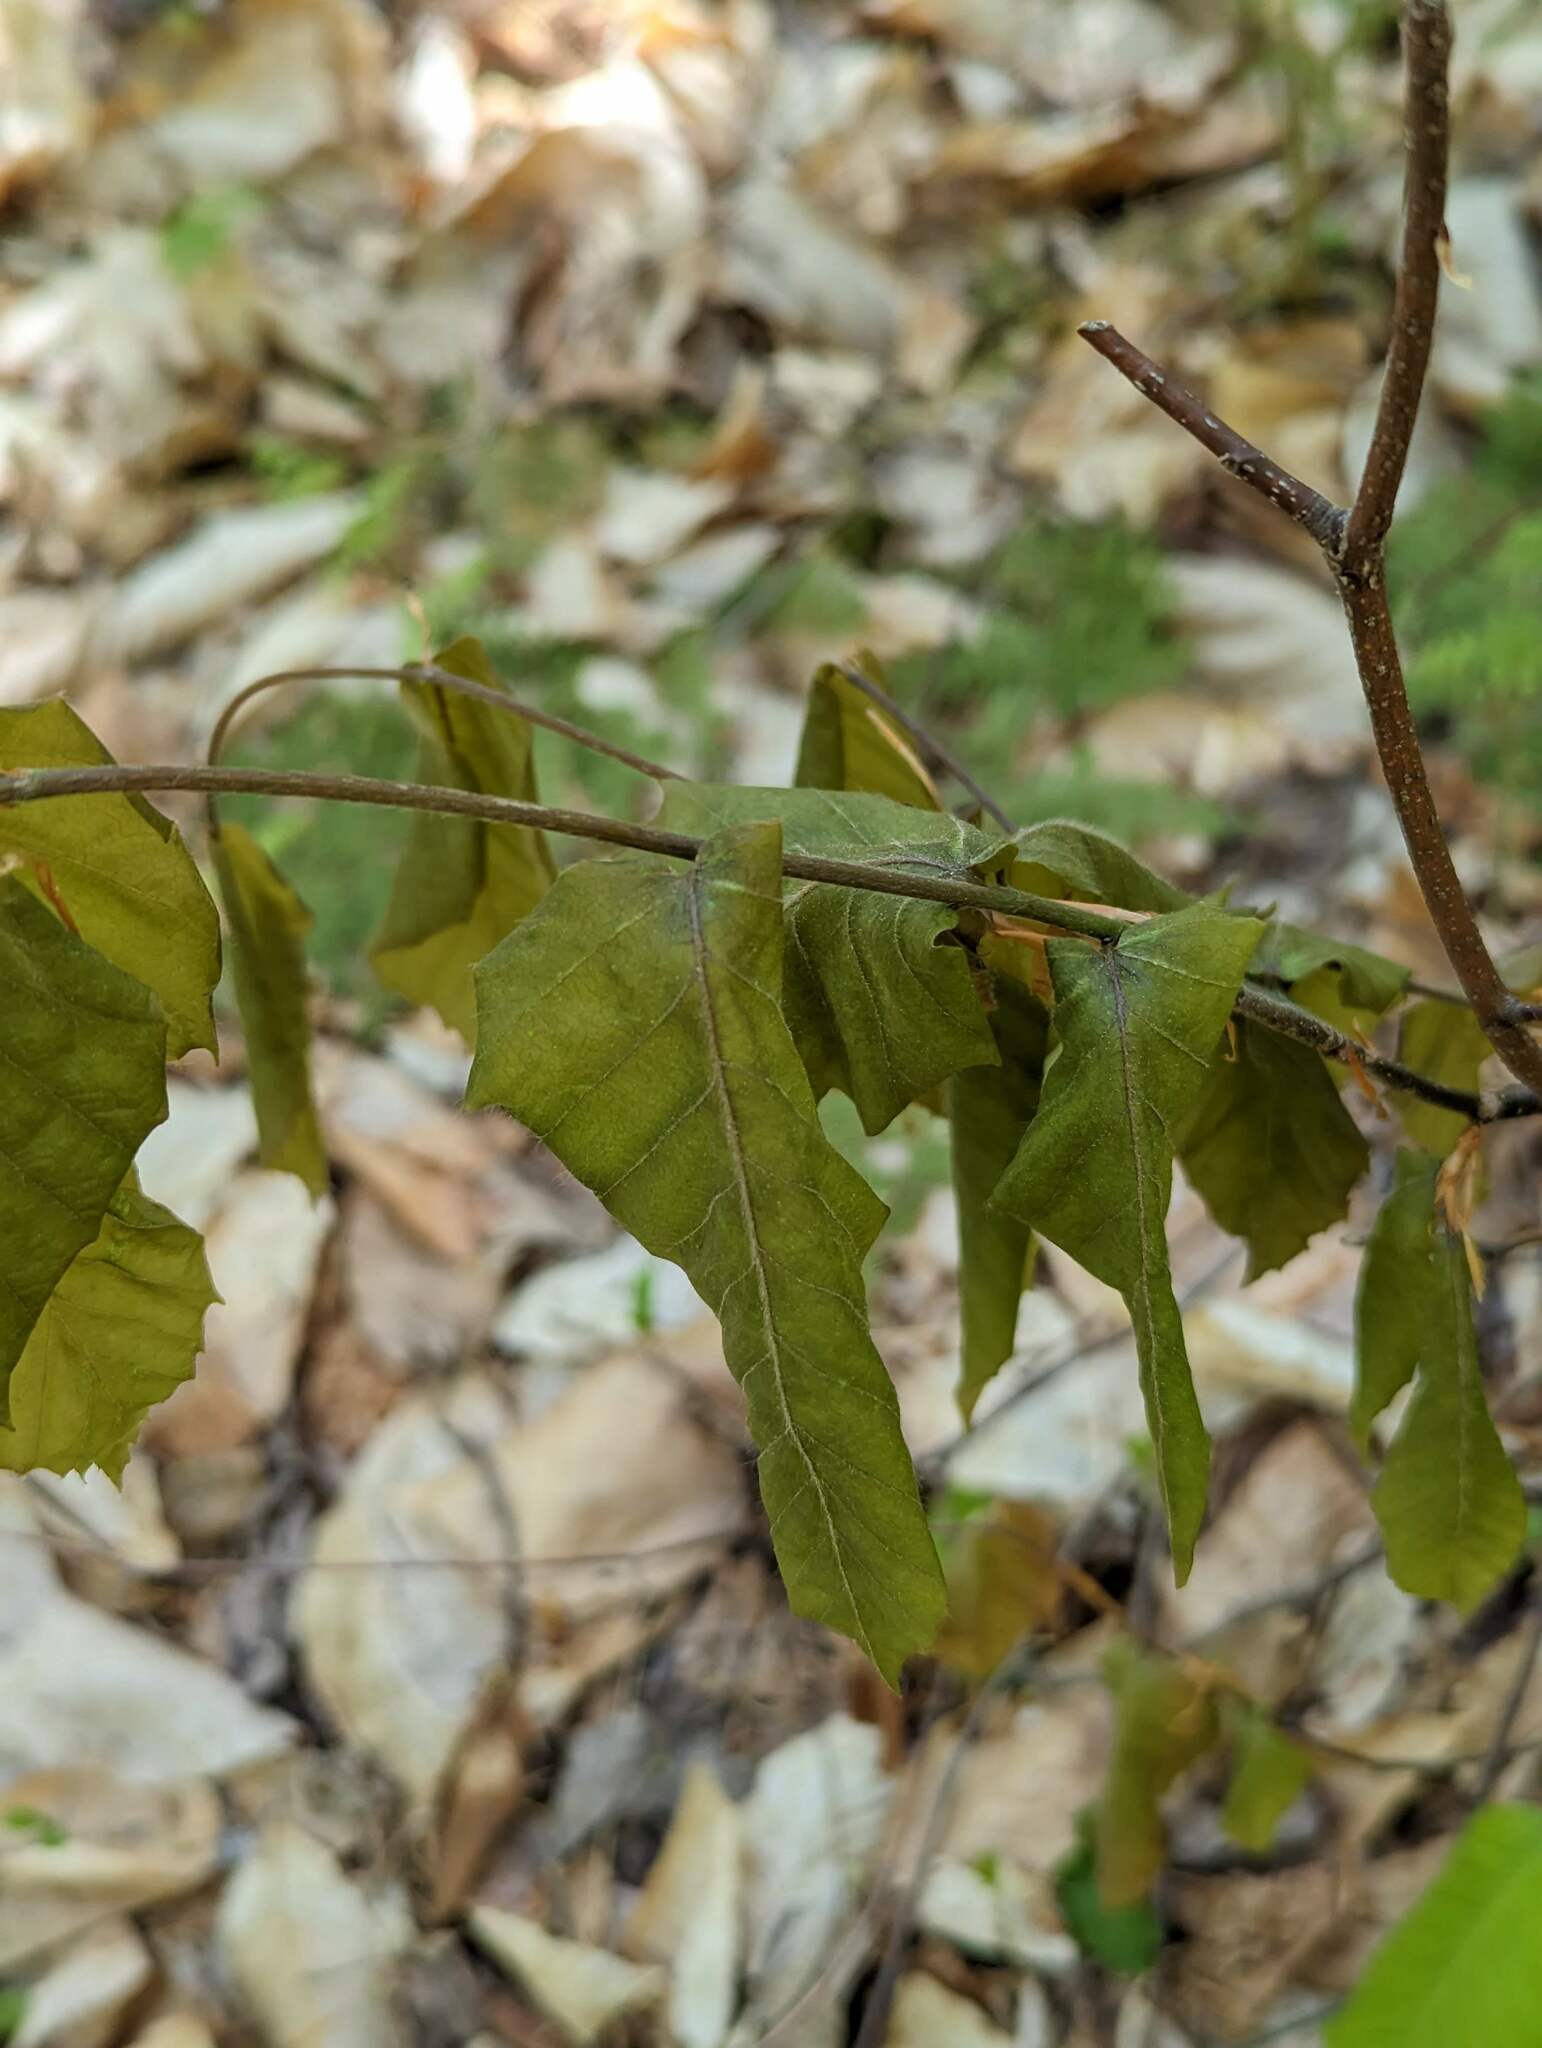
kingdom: Plantae
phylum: Tracheophyta
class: Magnoliopsida
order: Fagales
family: Fagaceae
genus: Fagus
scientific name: Fagus grandifolia
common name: American beech
